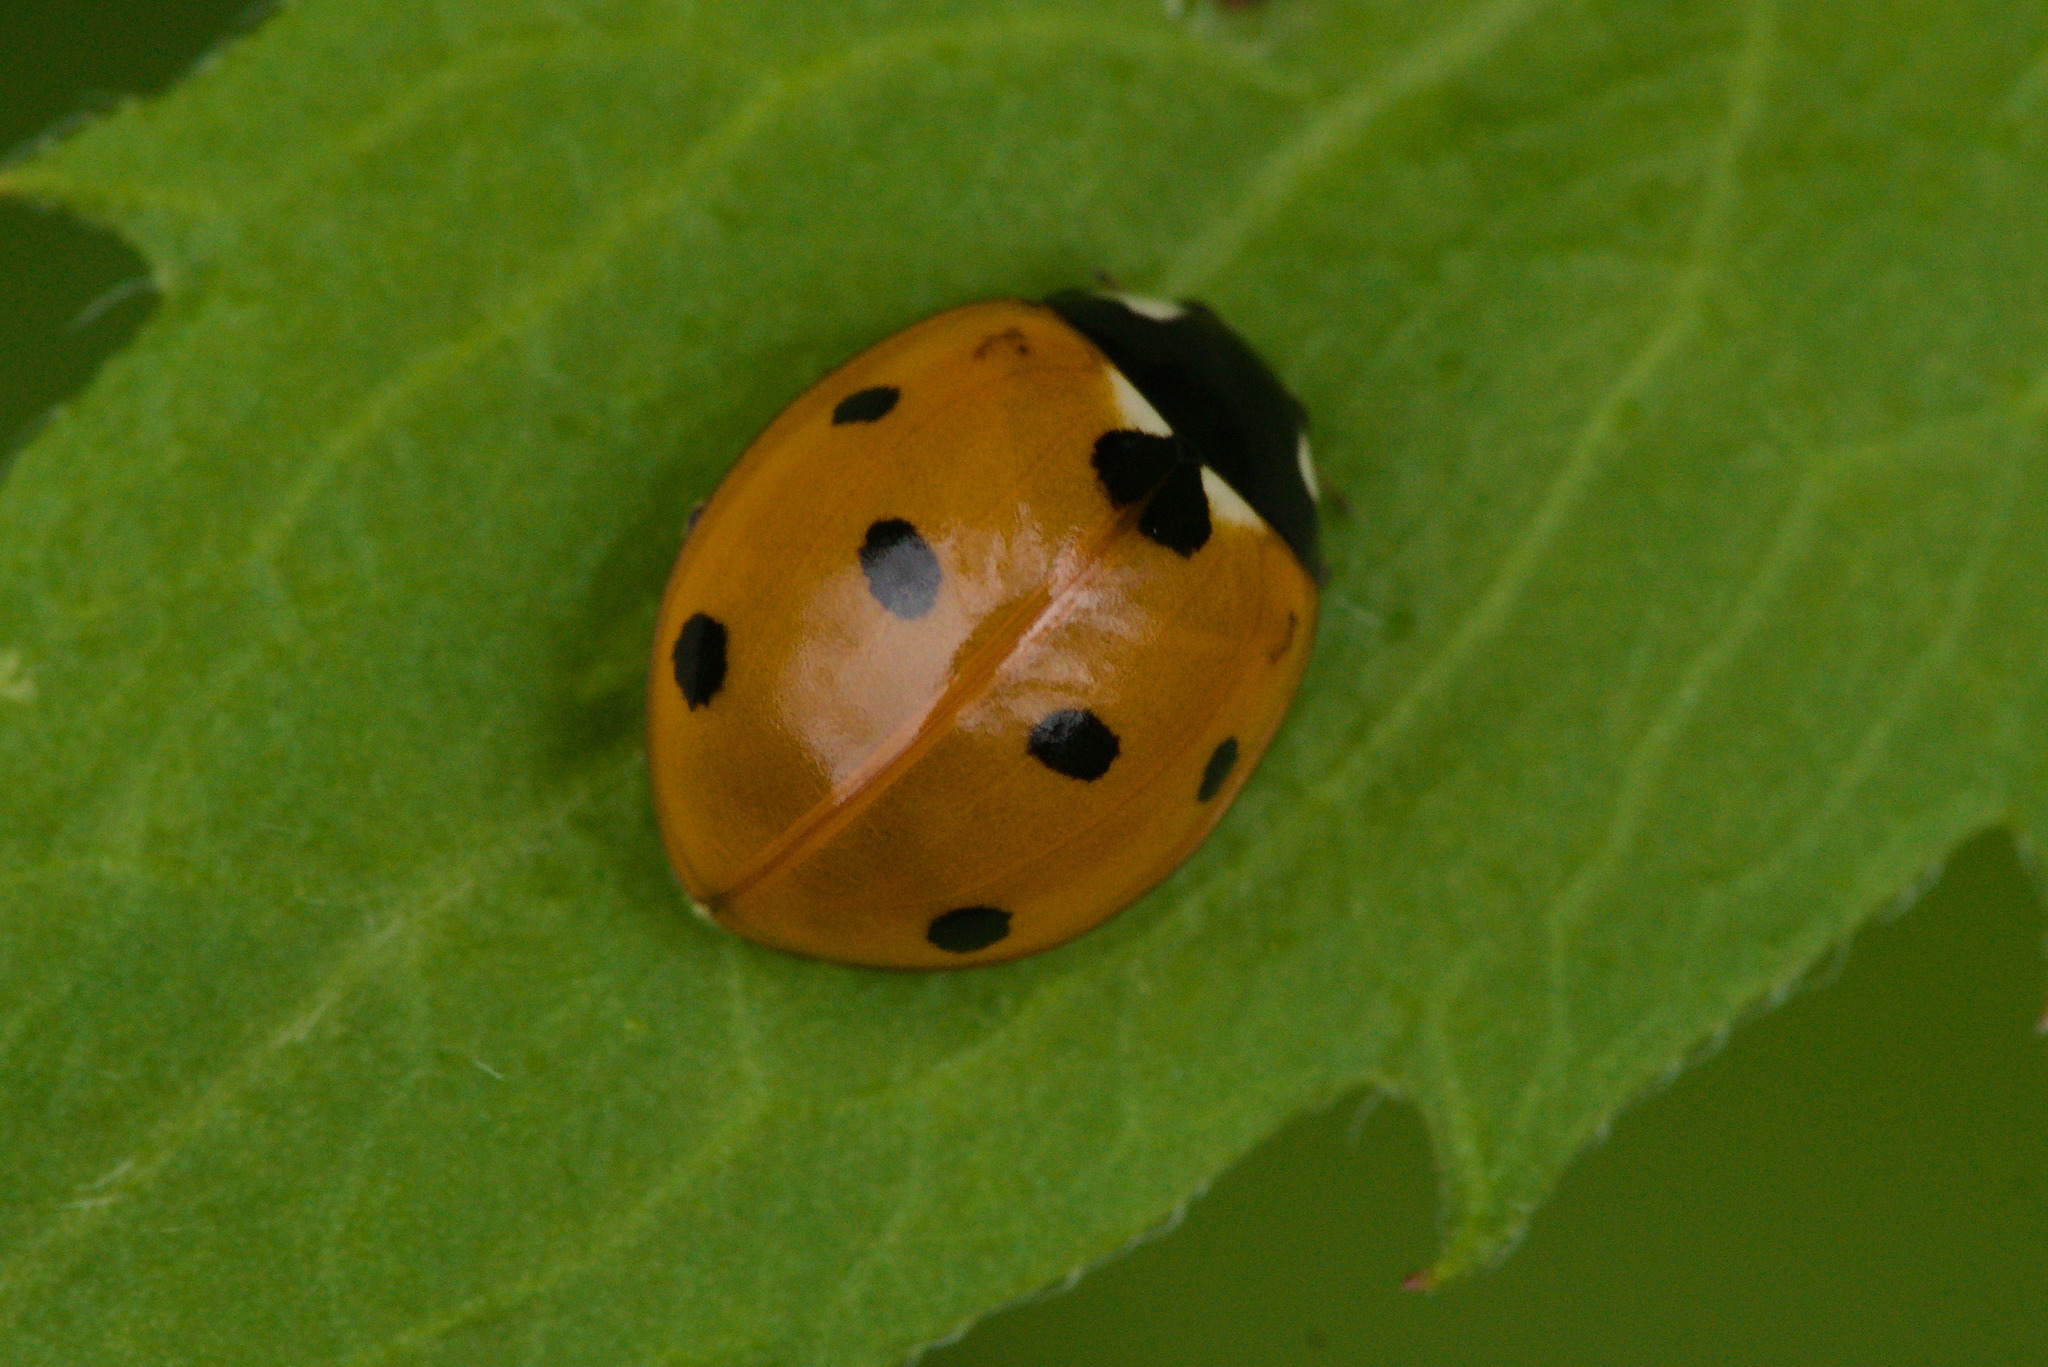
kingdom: Animalia
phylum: Arthropoda
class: Insecta
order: Coleoptera
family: Coccinellidae
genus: Coccinella
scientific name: Coccinella septempunctata
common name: Sevenspotted lady beetle
